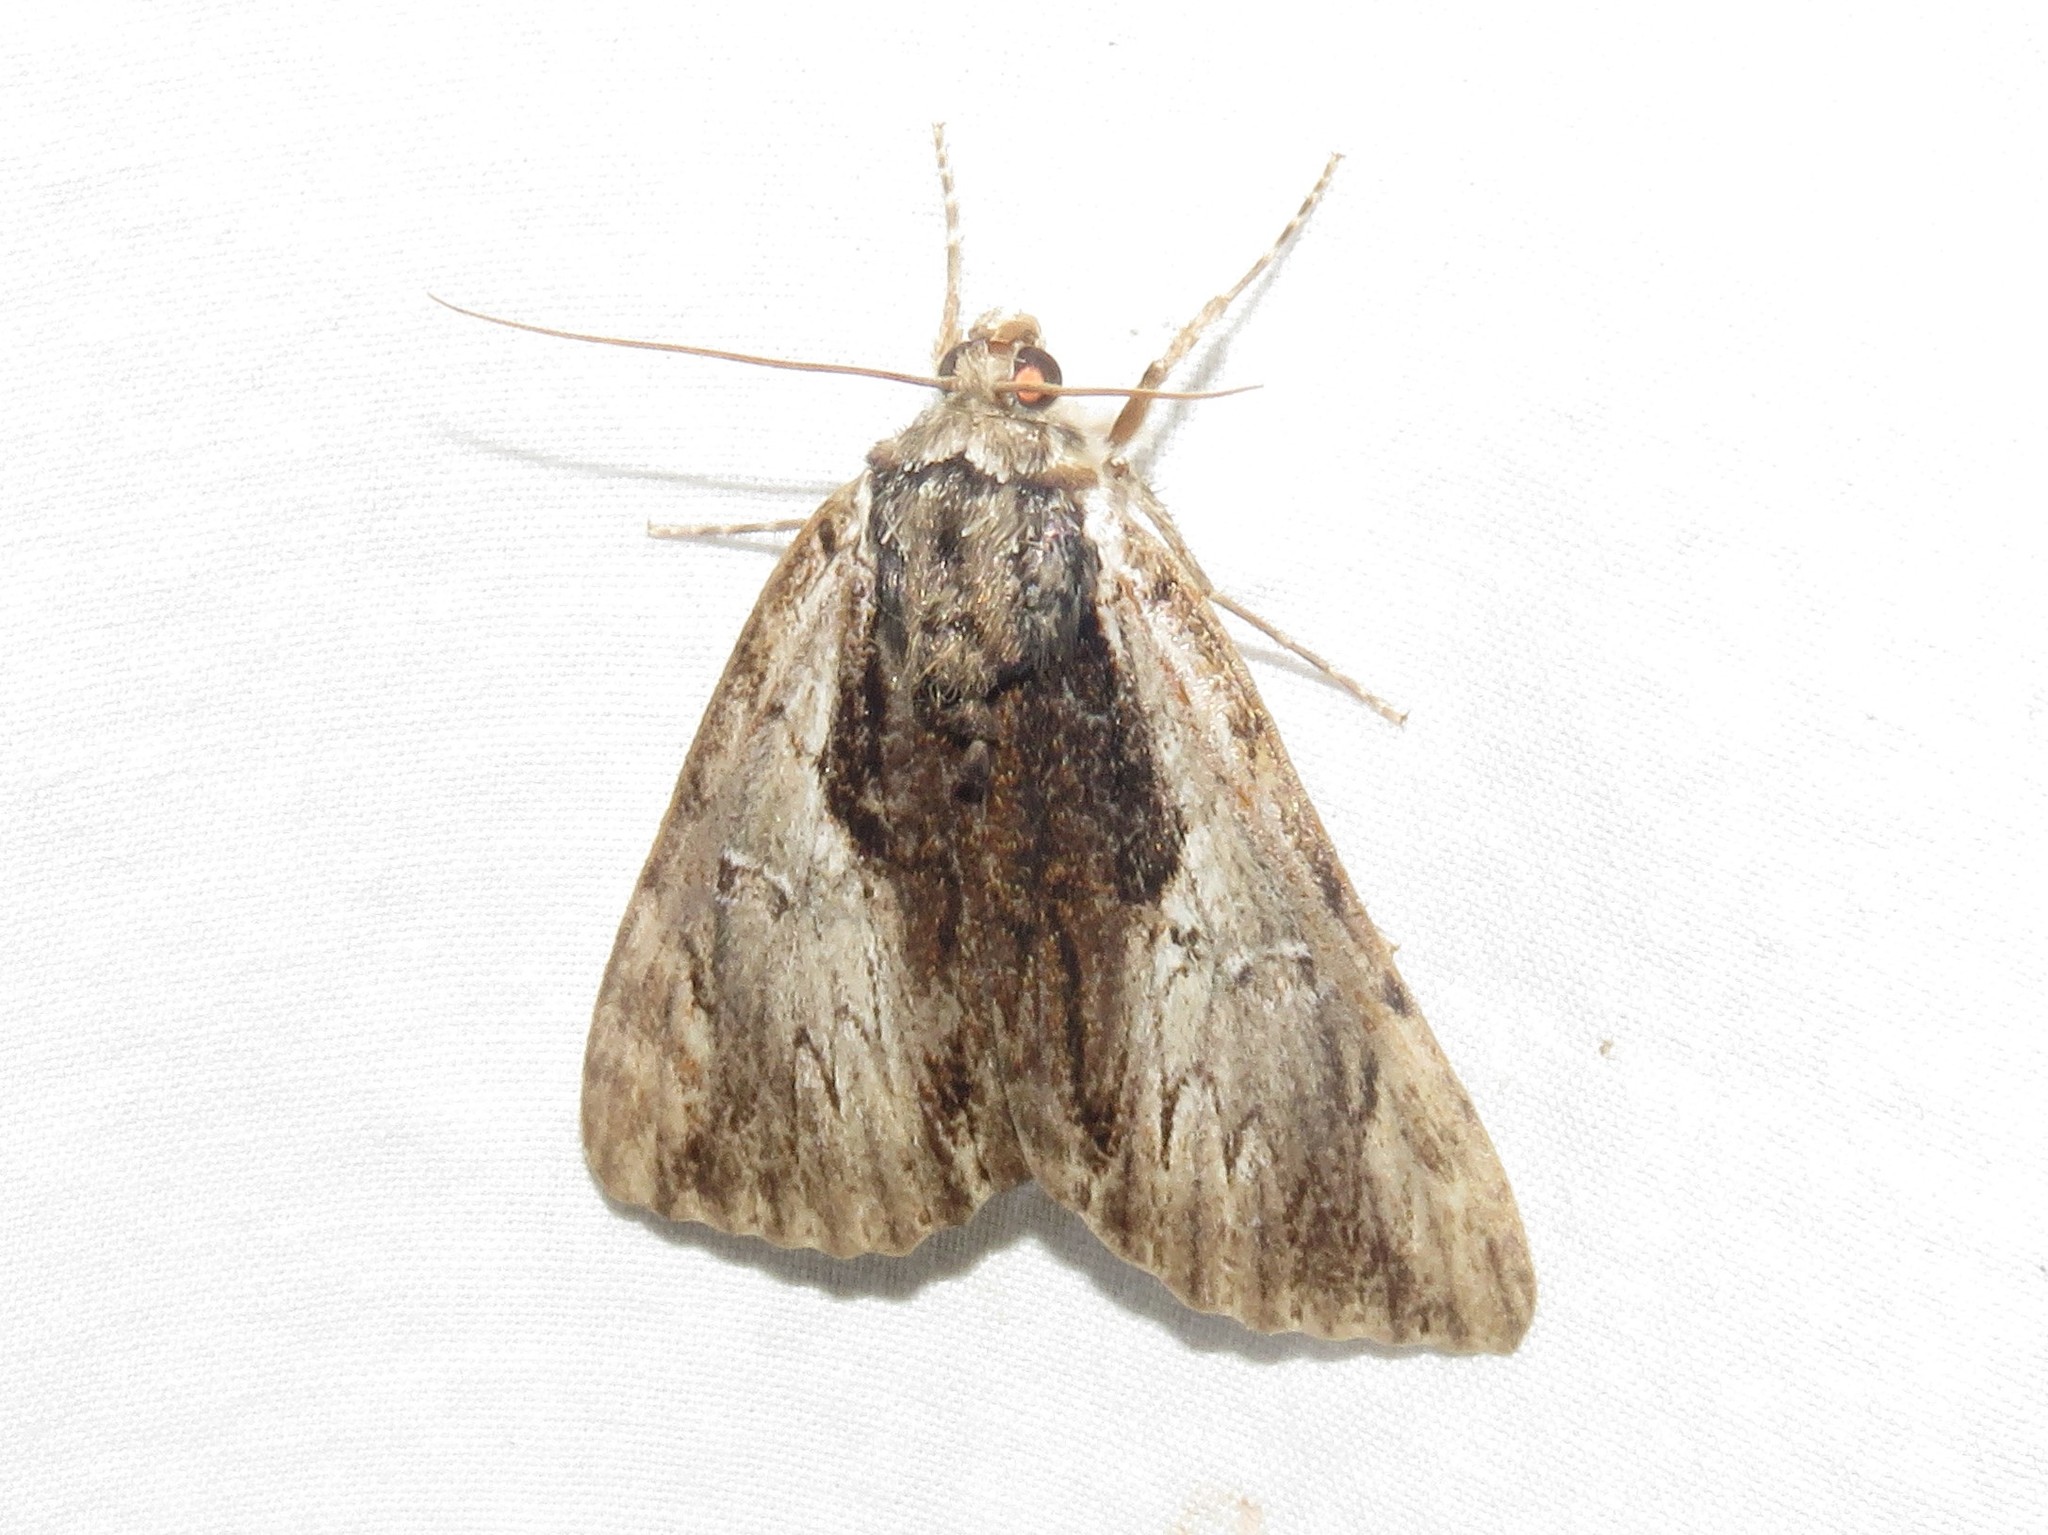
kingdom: Animalia
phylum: Arthropoda
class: Insecta
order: Lepidoptera
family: Erebidae
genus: Catocala
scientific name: Catocala ultronia
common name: Ultronia underwing
